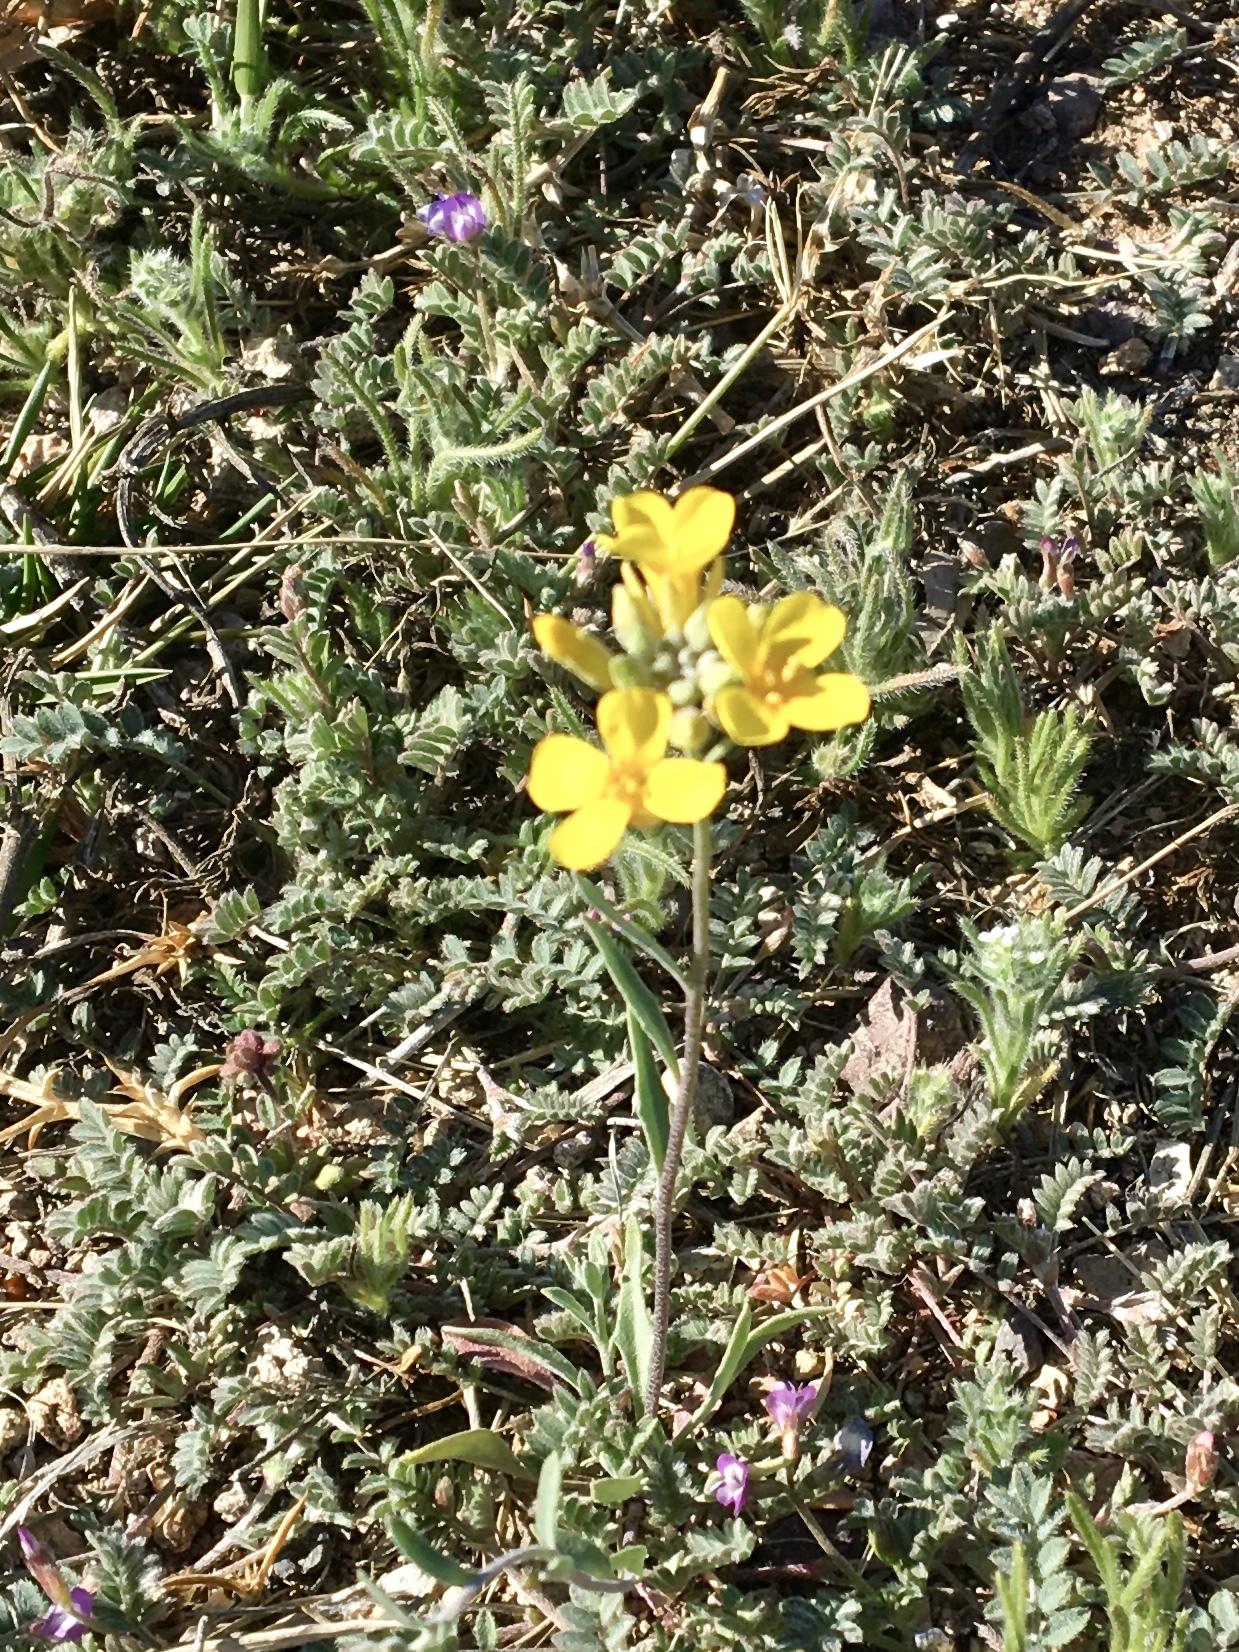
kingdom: Plantae
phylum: Tracheophyta
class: Magnoliopsida
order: Brassicales
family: Brassicaceae
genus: Physaria
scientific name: Physaria gordonii
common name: Gordon's bladderpod
